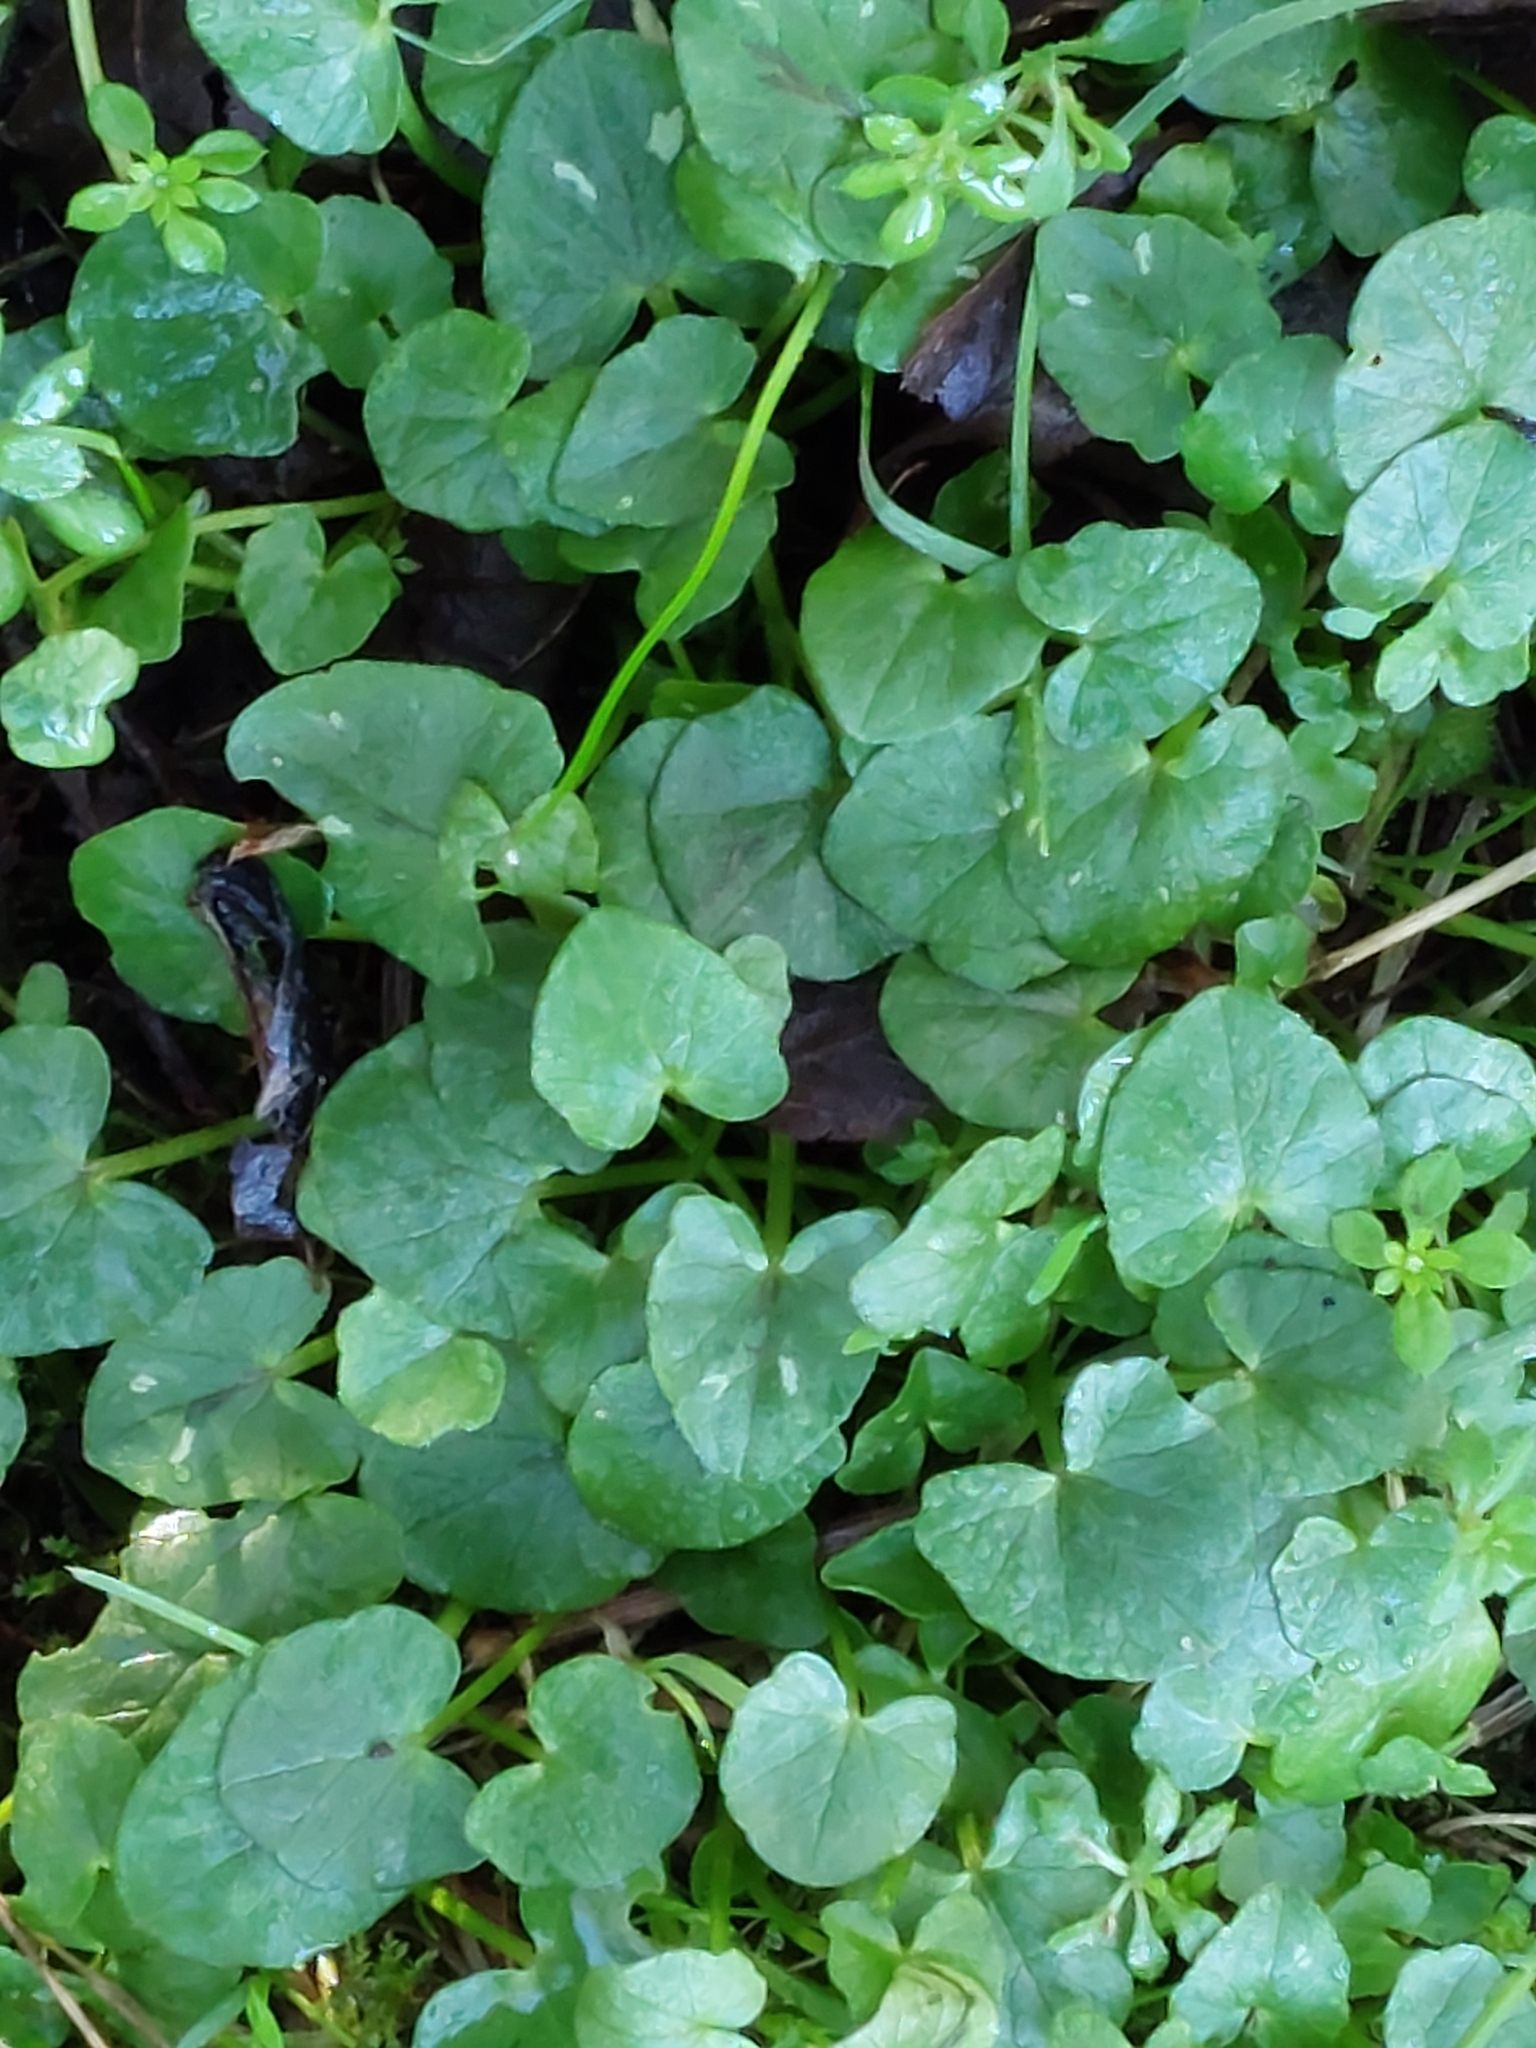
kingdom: Plantae
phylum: Tracheophyta
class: Magnoliopsida
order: Ranunculales
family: Ranunculaceae
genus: Ficaria
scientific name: Ficaria verna
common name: Lesser celandine
